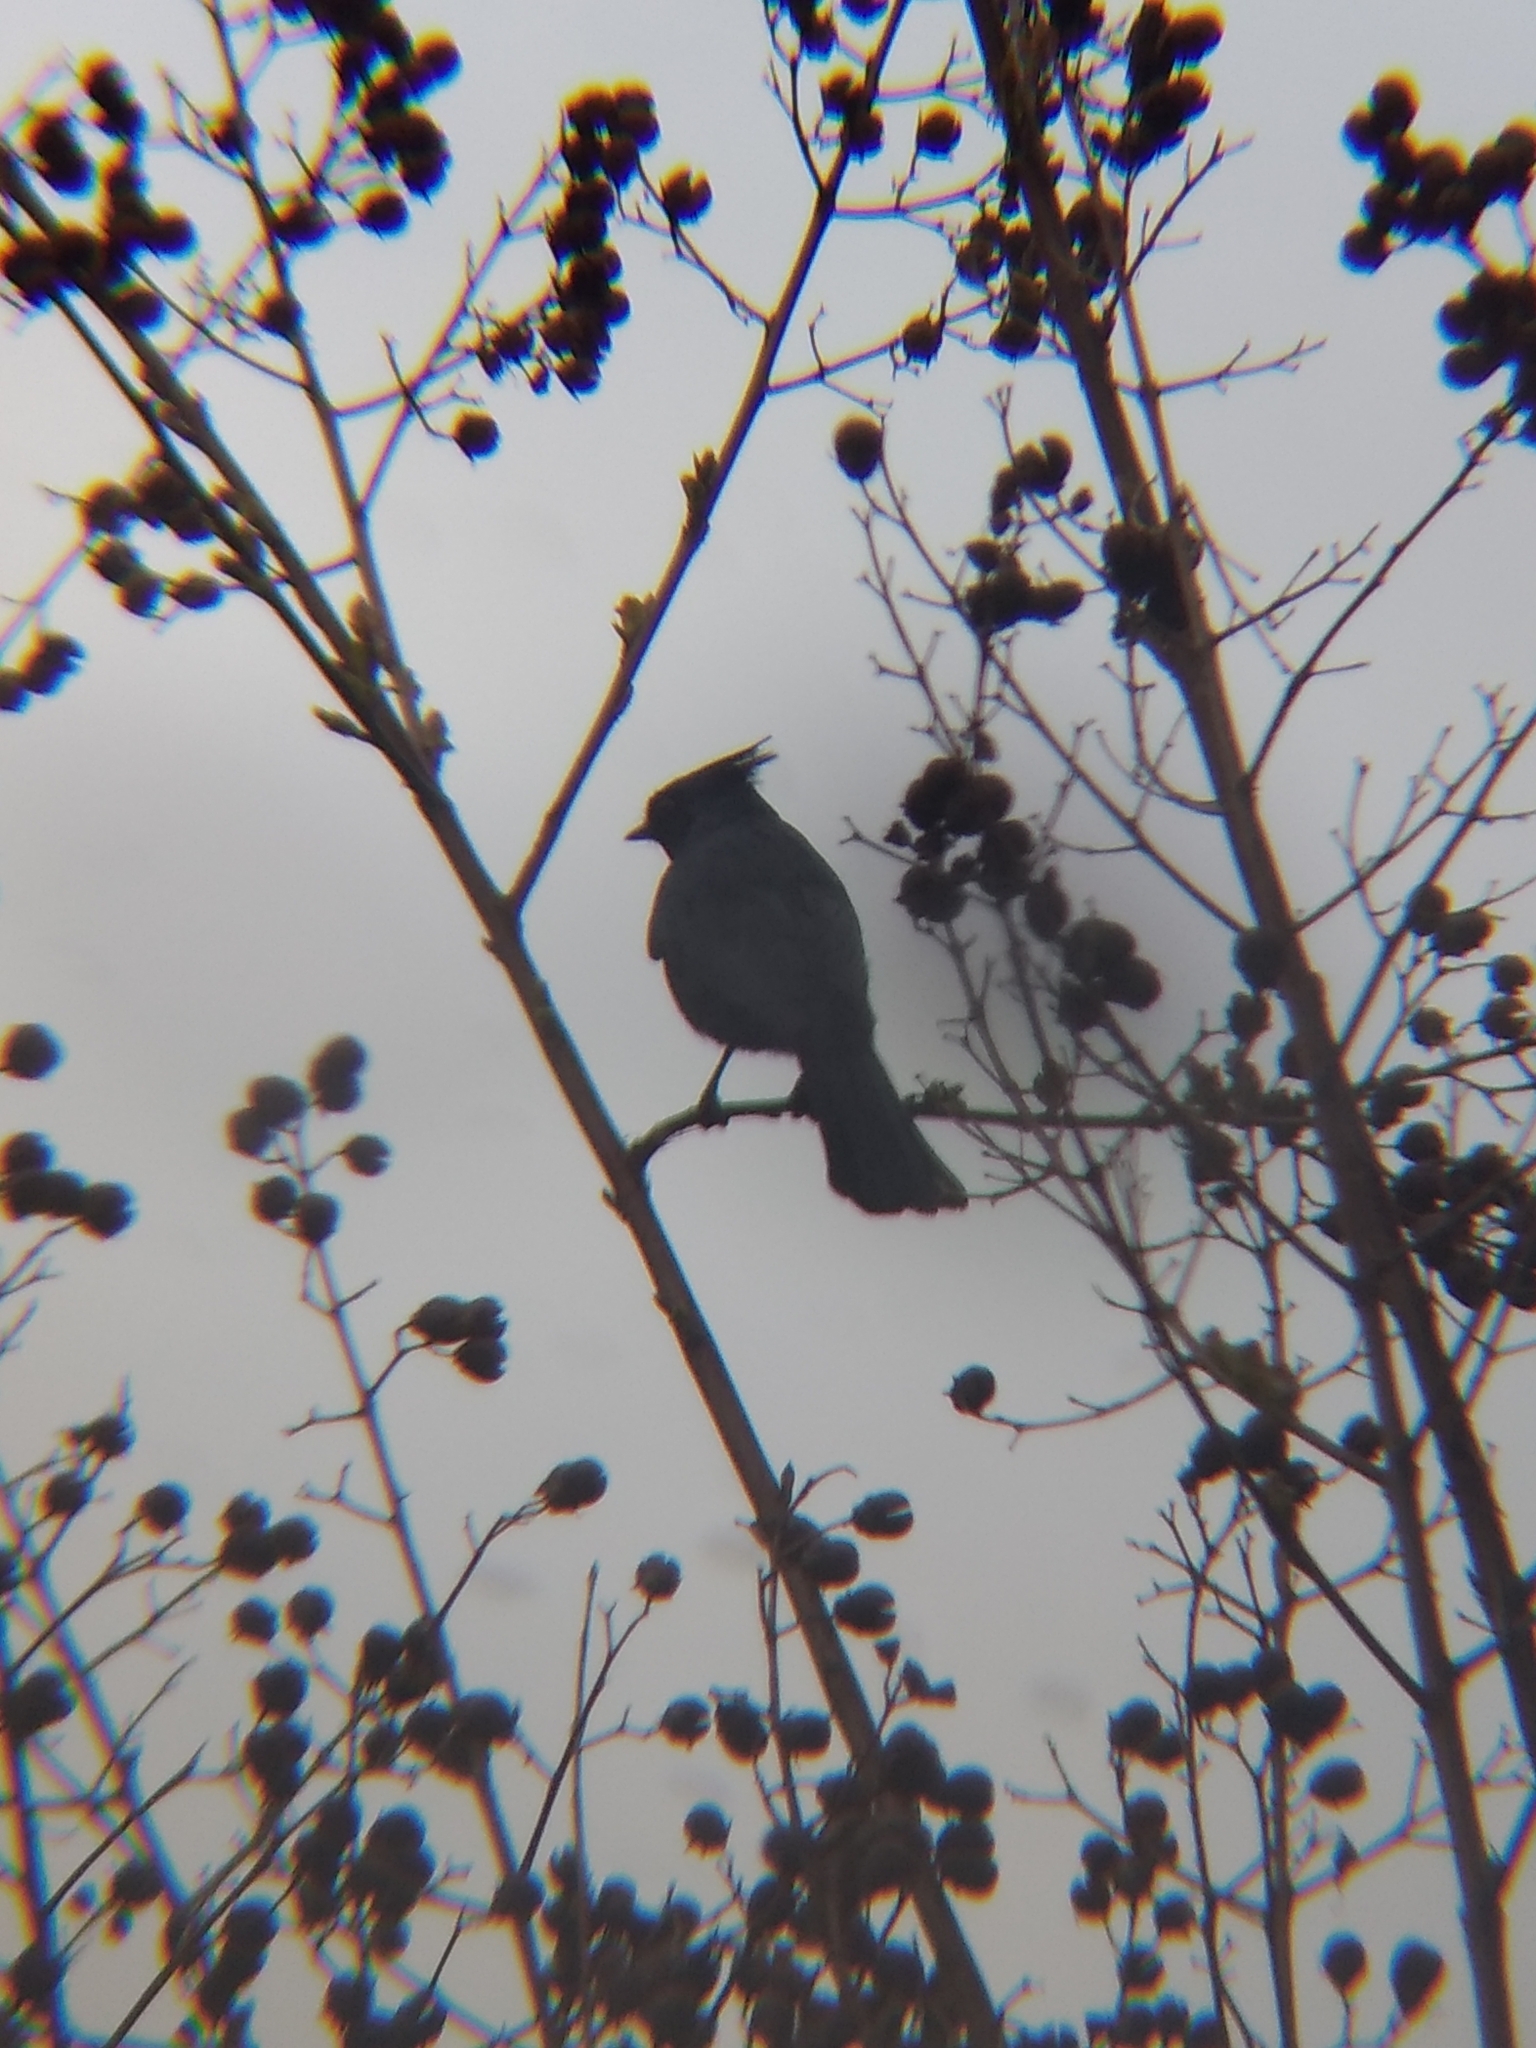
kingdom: Animalia
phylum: Chordata
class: Aves
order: Passeriformes
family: Ptilogonatidae
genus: Phainopepla
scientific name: Phainopepla nitens
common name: Phainopepla
